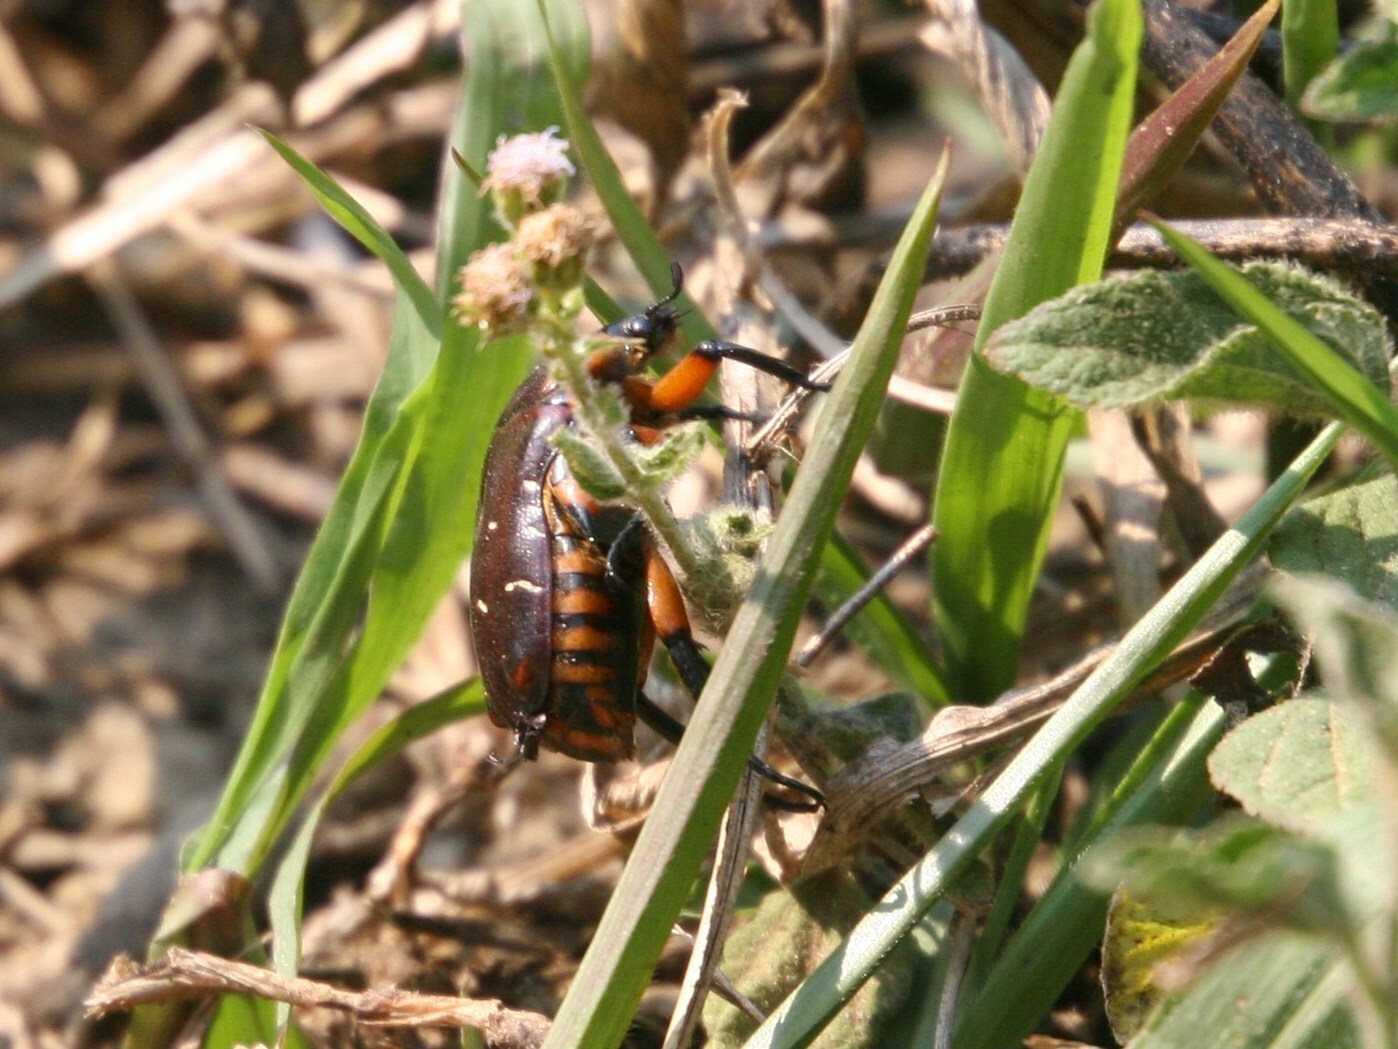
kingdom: Animalia
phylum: Arthropoda
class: Insecta
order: Coleoptera
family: Scarabaeidae
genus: Bothrorrhina
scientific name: Bothrorrhina ochreata
